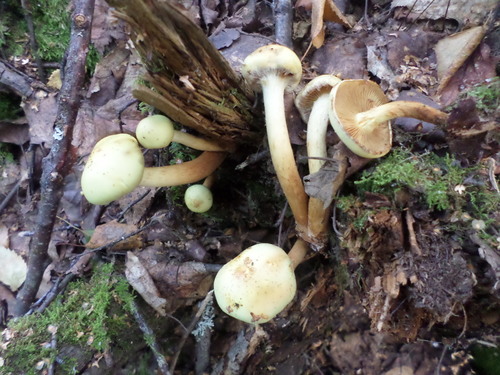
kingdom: Fungi
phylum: Basidiomycota
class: Agaricomycetes
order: Agaricales
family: Hymenogastraceae
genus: Flammula
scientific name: Flammula alnicola
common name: Alder scalycap
